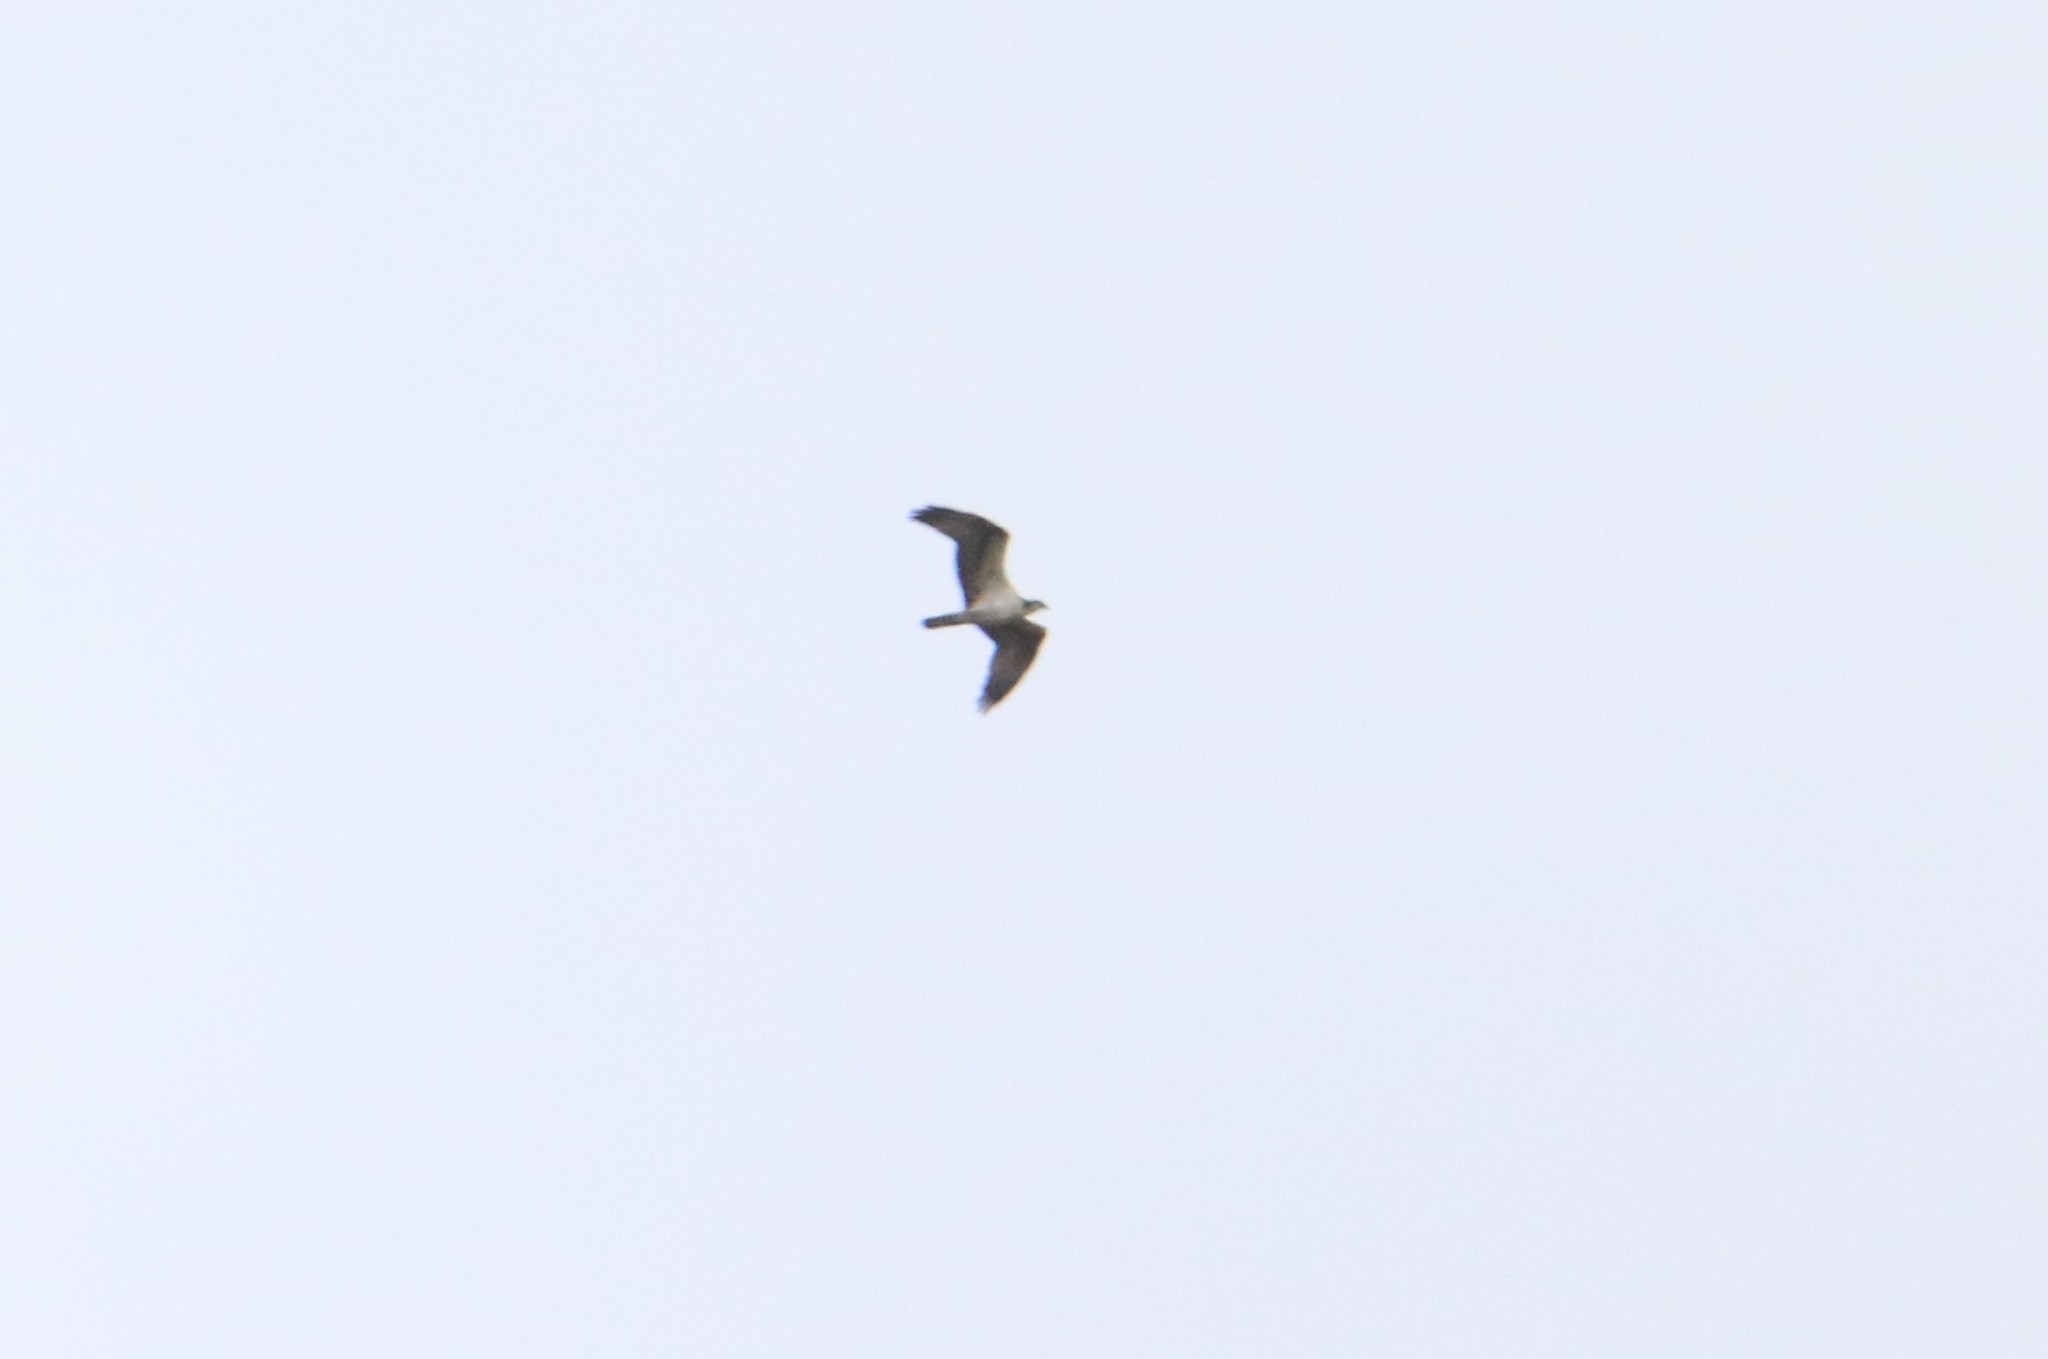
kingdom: Animalia
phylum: Chordata
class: Aves
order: Accipitriformes
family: Pandionidae
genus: Pandion
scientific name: Pandion haliaetus
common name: Osprey
